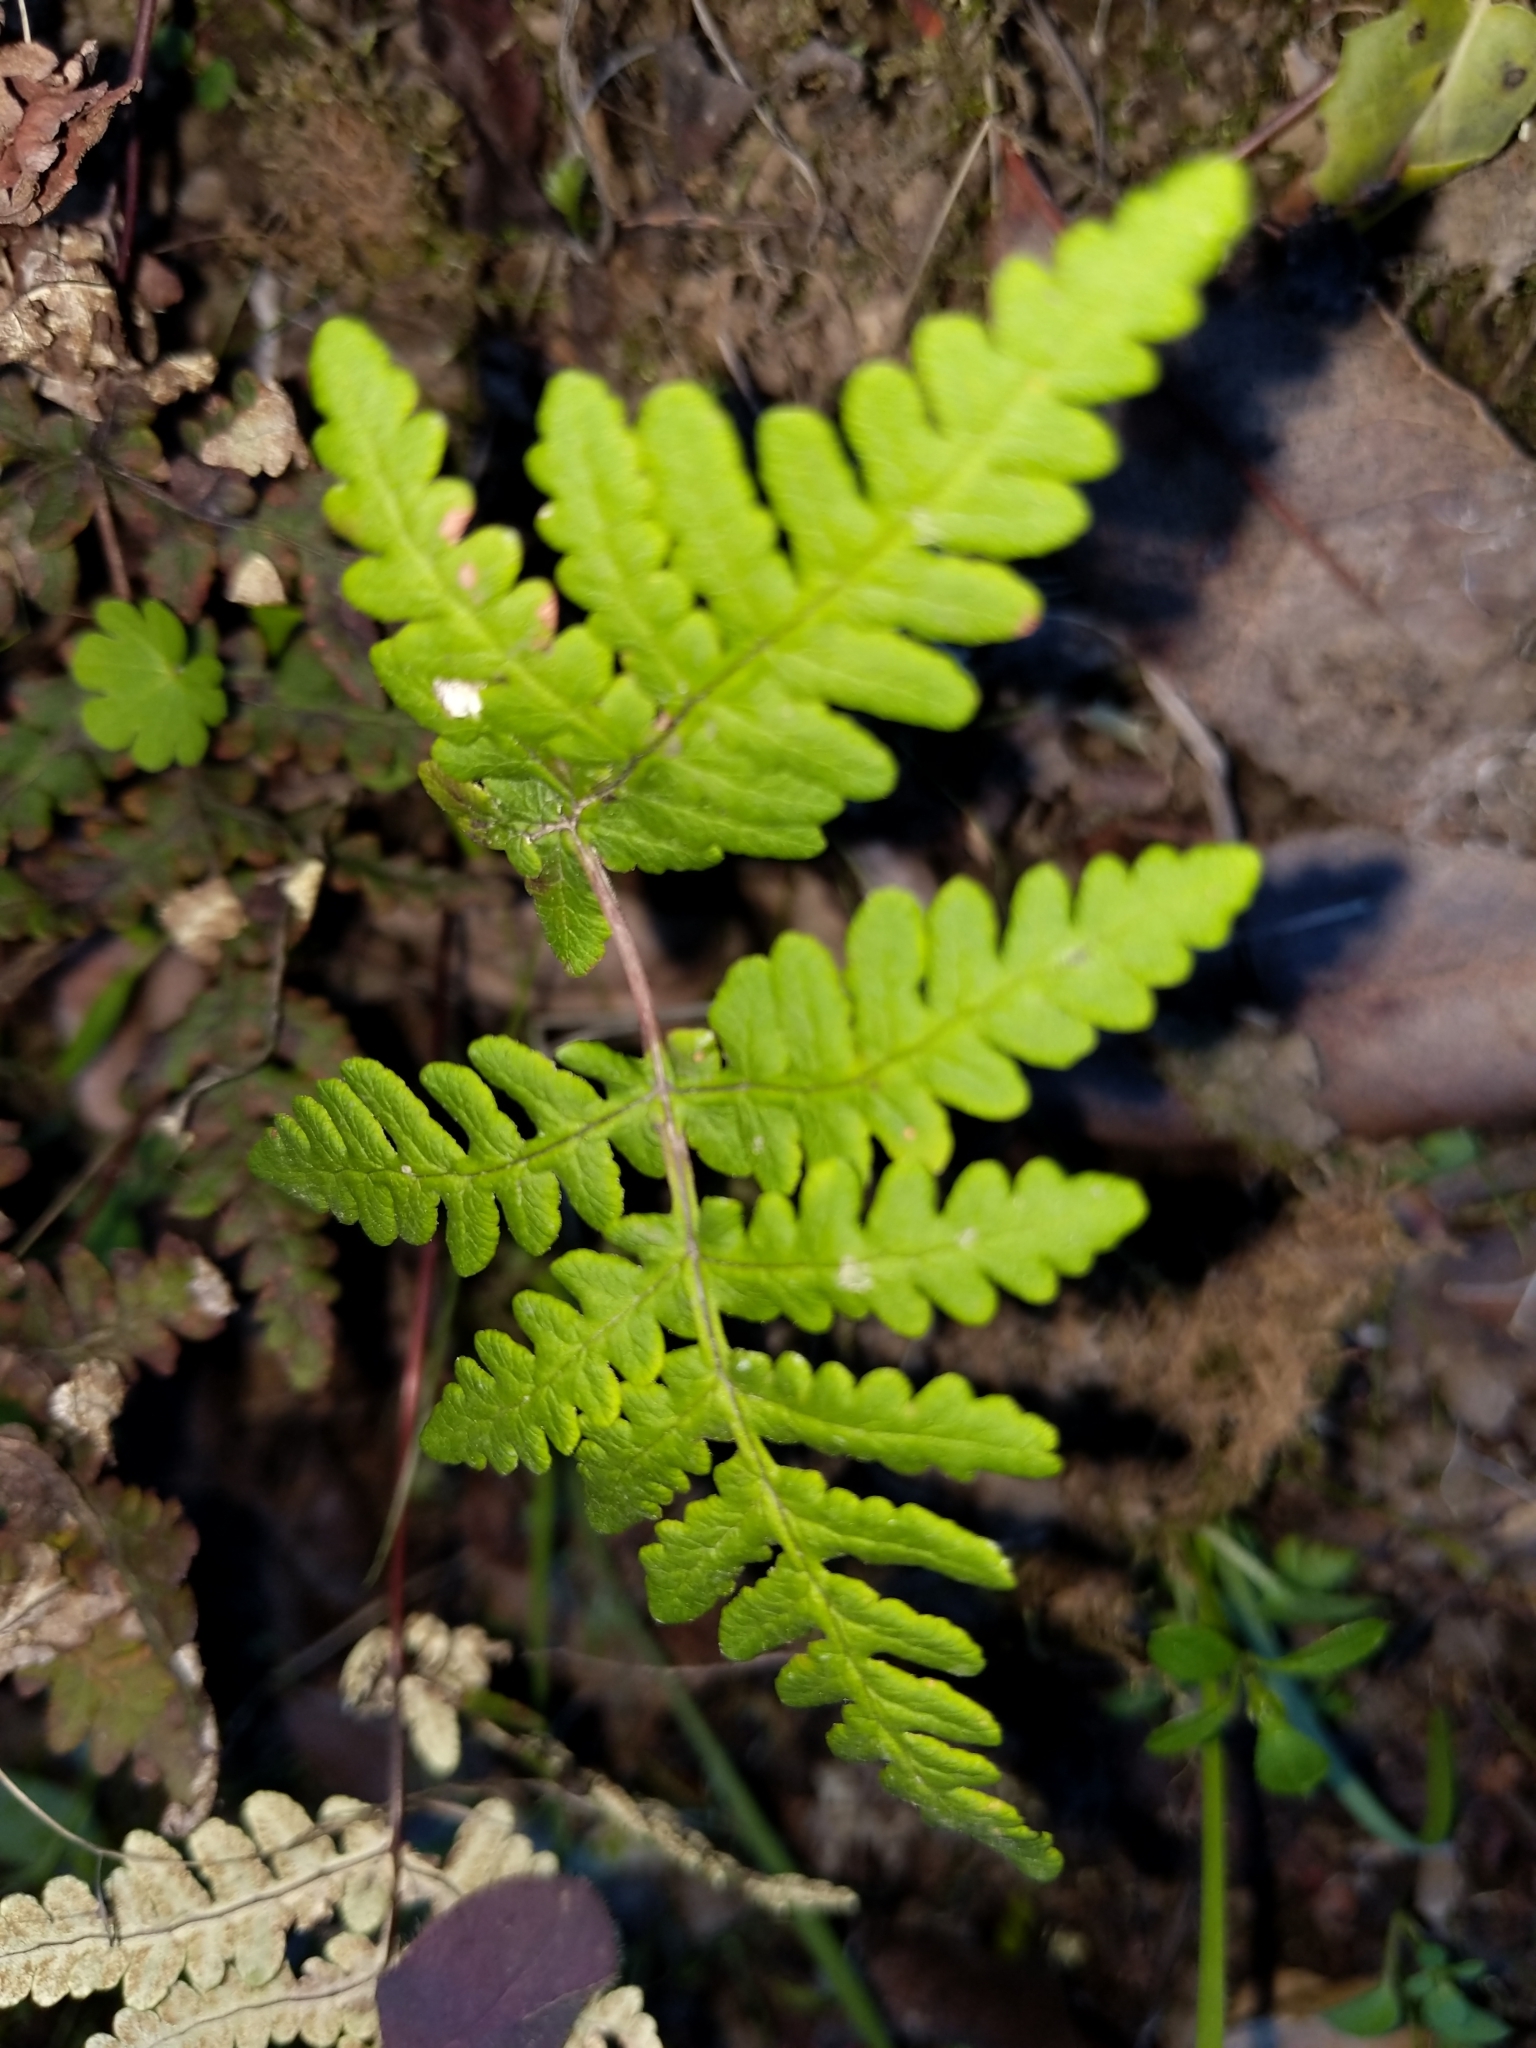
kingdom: Plantae
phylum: Tracheophyta
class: Polypodiopsida
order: Polypodiales
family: Pteridaceae
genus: Pentagramma
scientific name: Pentagramma triangularis
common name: Gold fern
